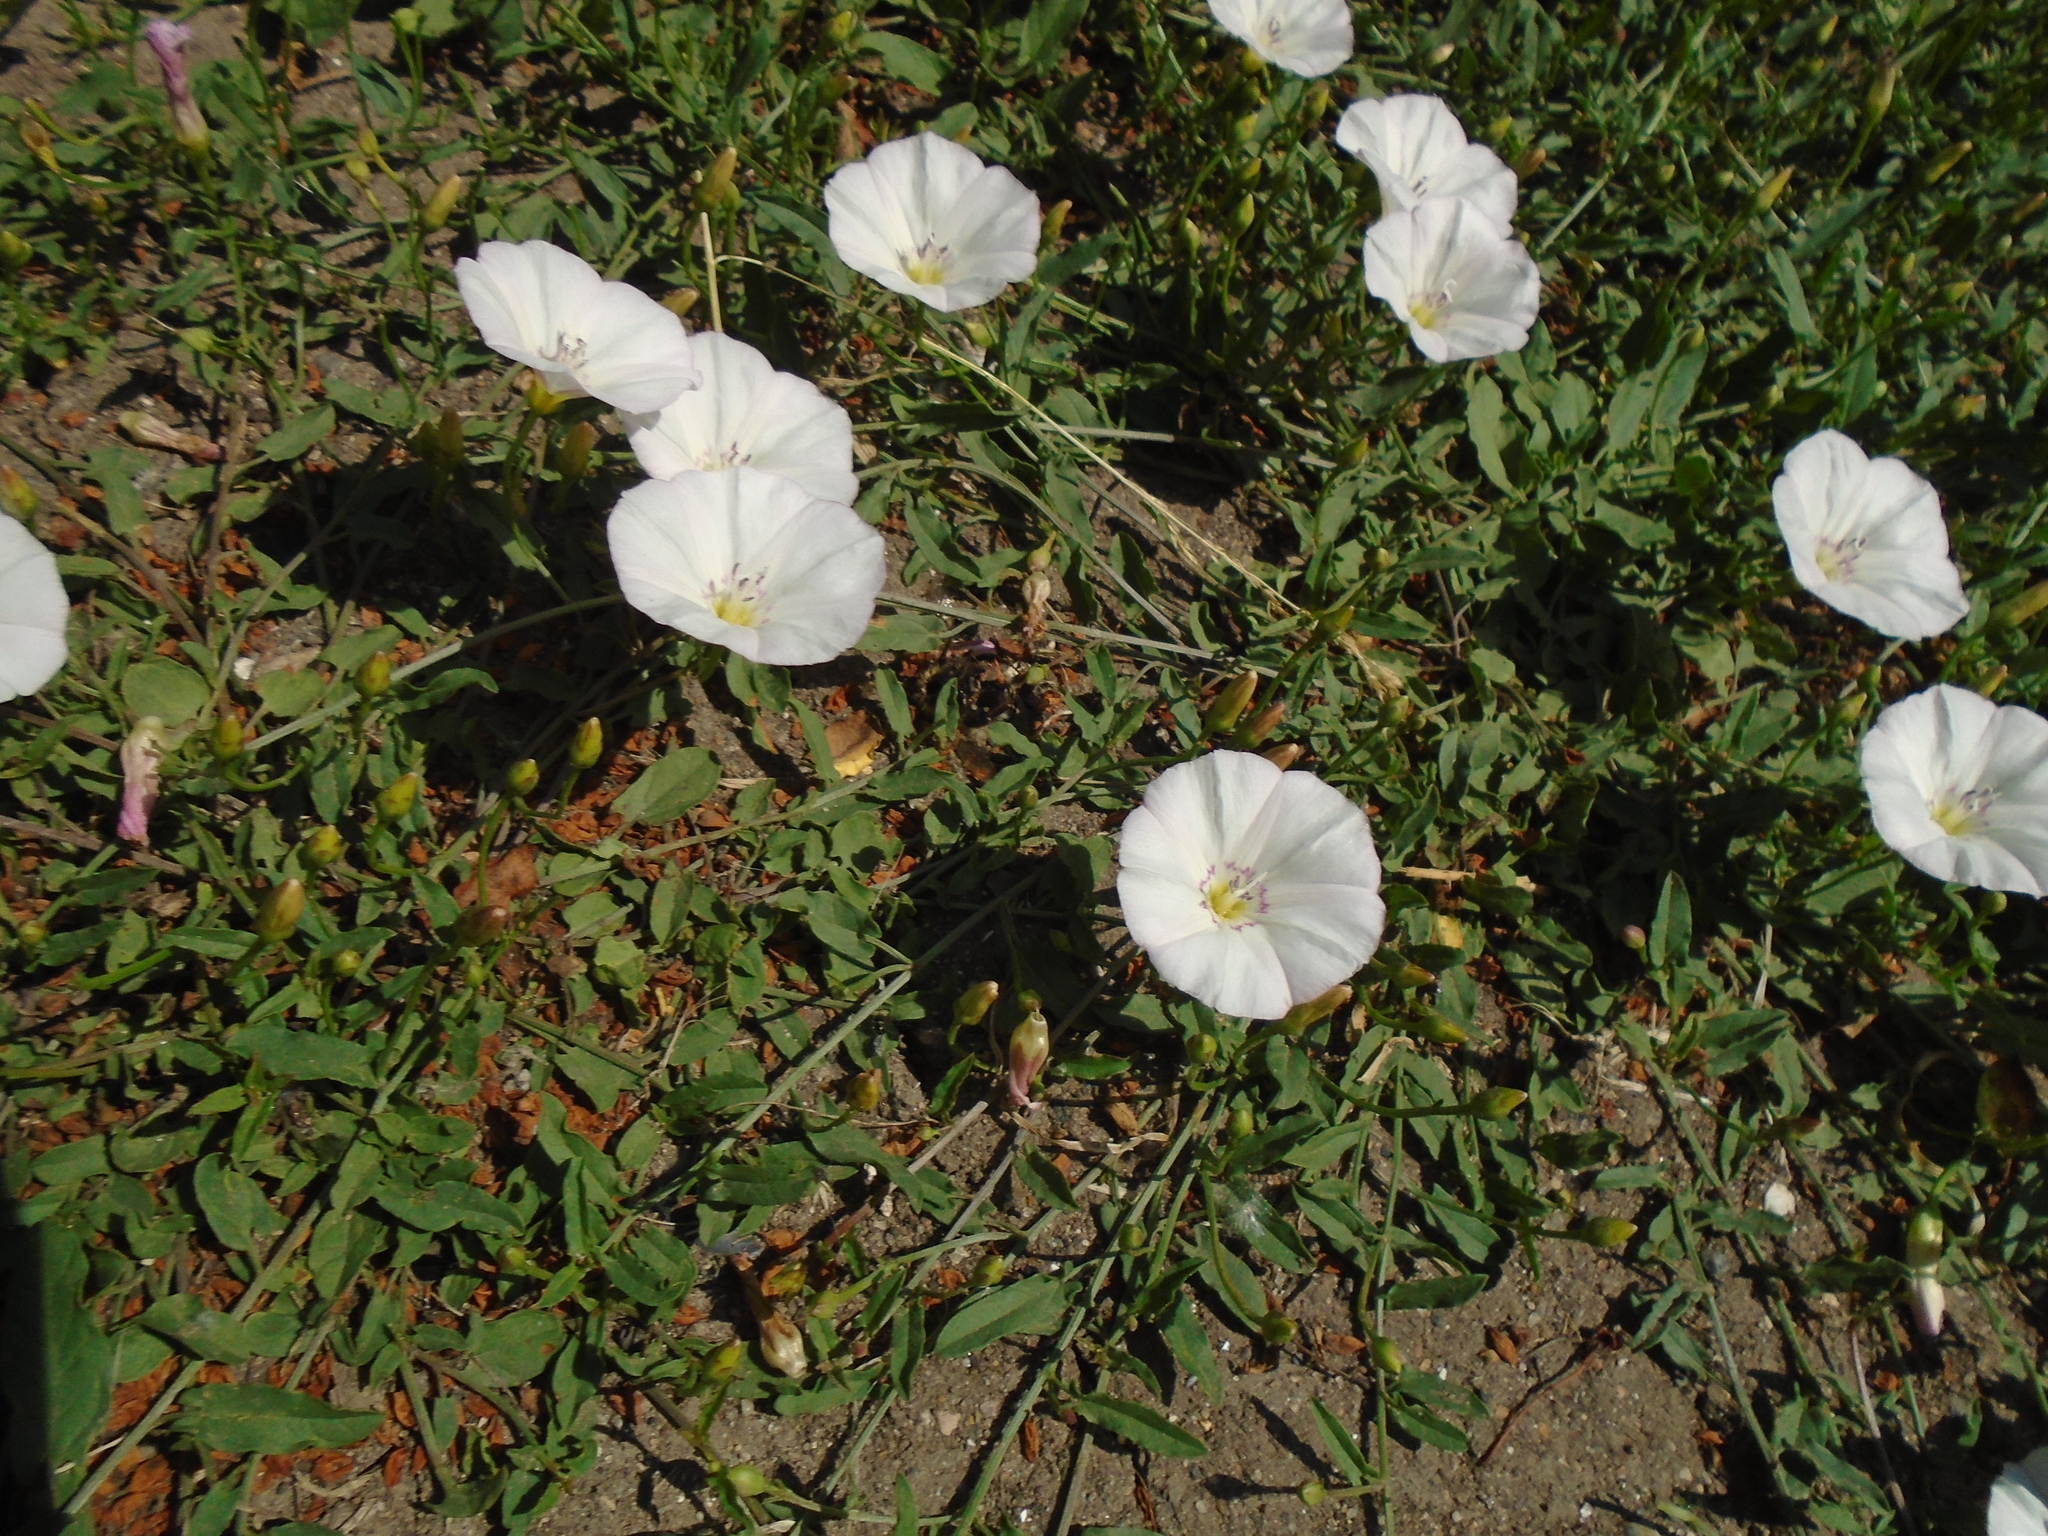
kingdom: Plantae
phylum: Tracheophyta
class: Magnoliopsida
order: Solanales
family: Convolvulaceae
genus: Convolvulus
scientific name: Convolvulus arvensis
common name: Field bindweed
